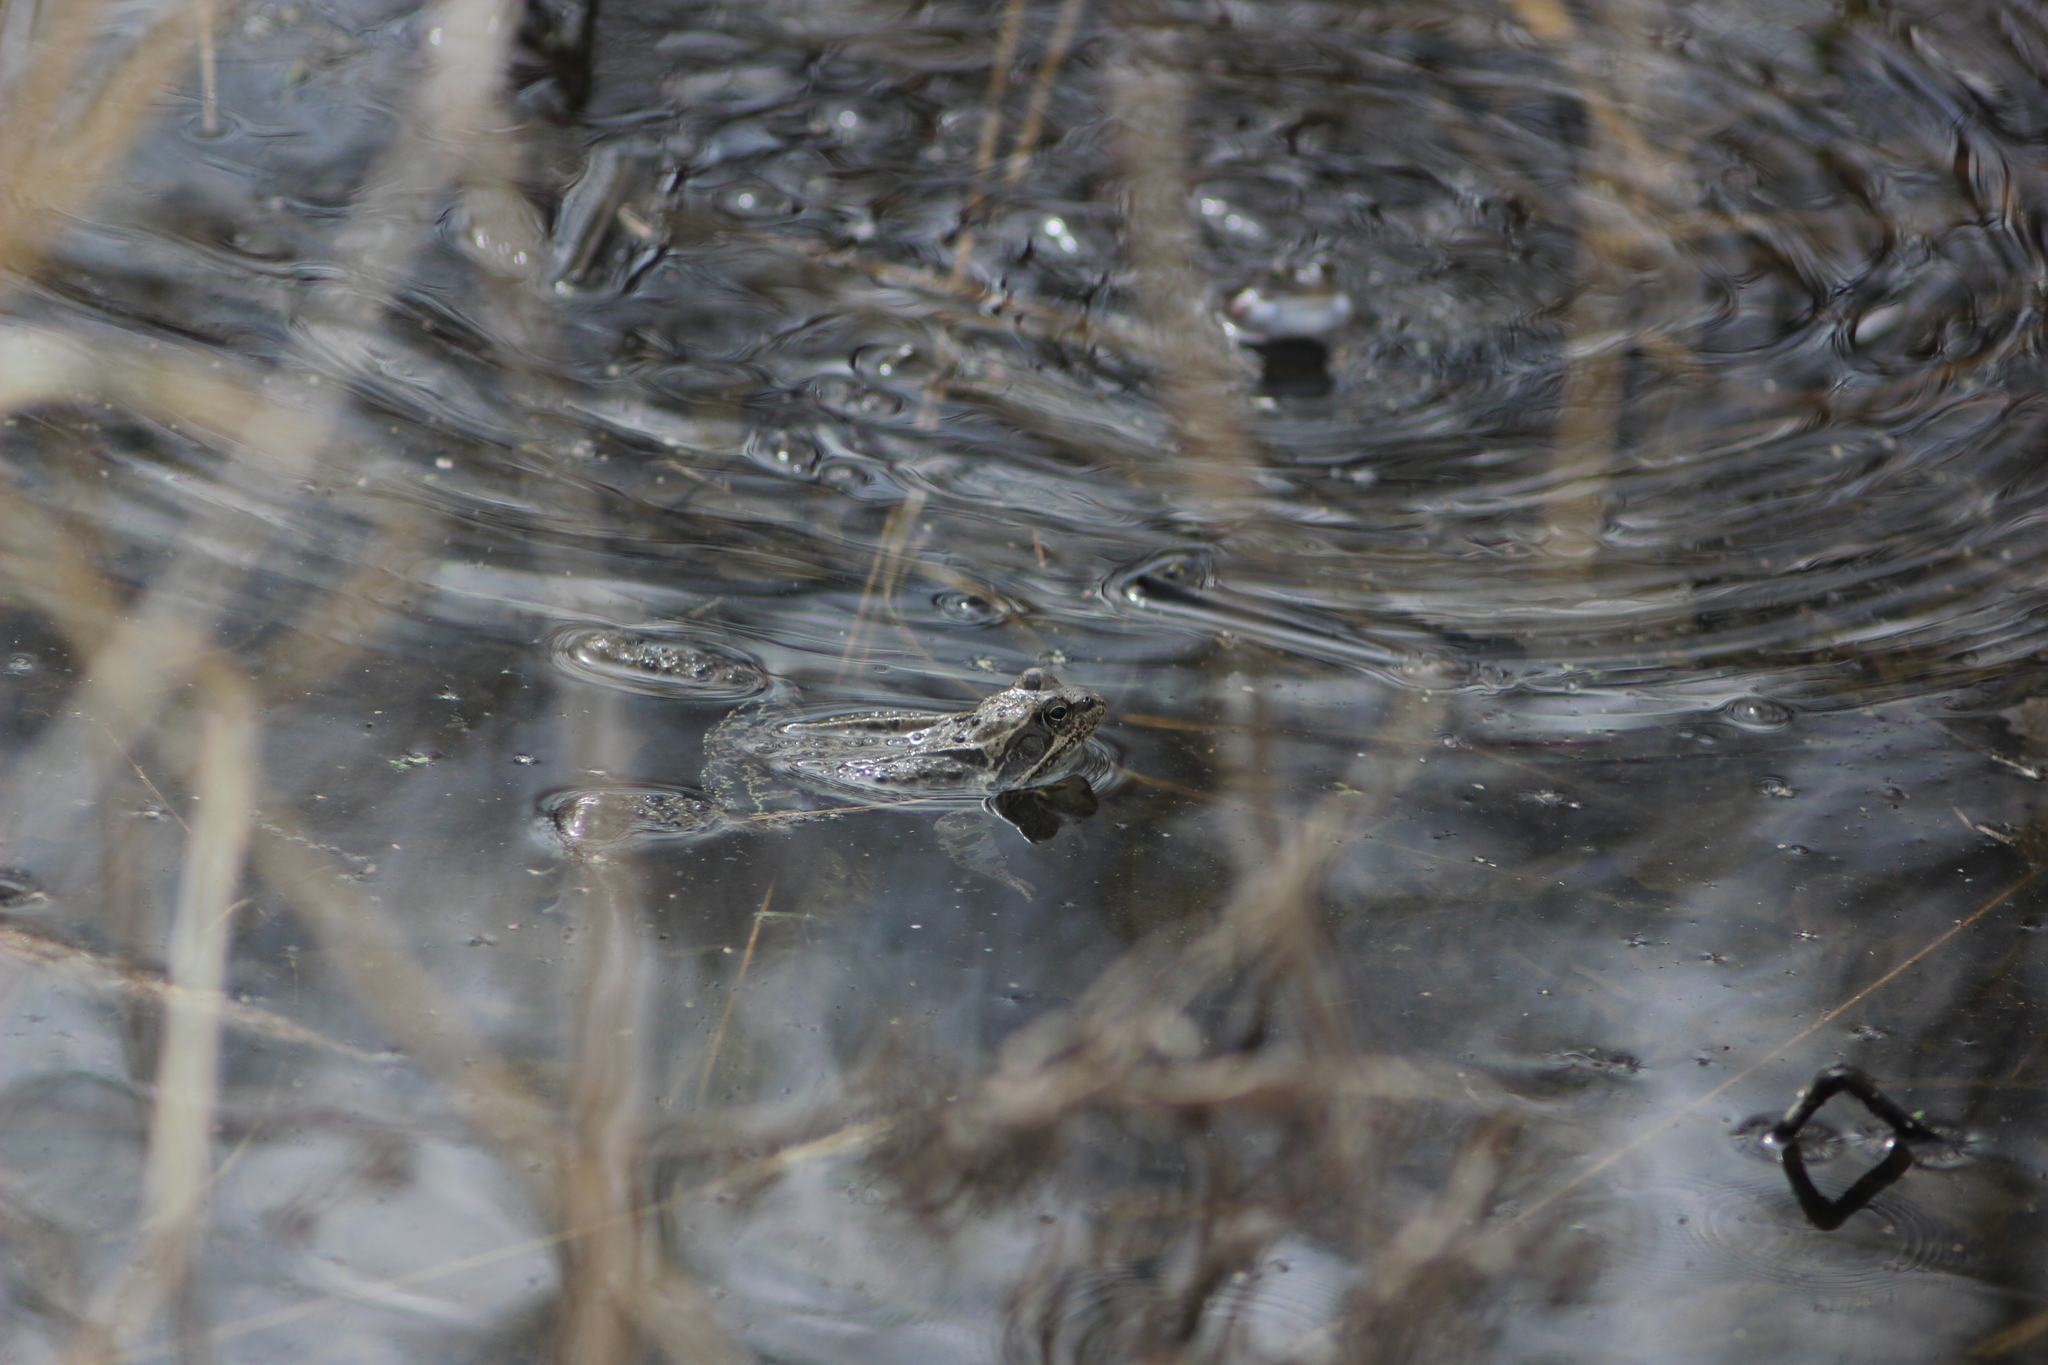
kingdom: Animalia
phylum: Chordata
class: Amphibia
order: Anura
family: Ranidae
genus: Rana
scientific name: Rana temporaria
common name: Common frog
